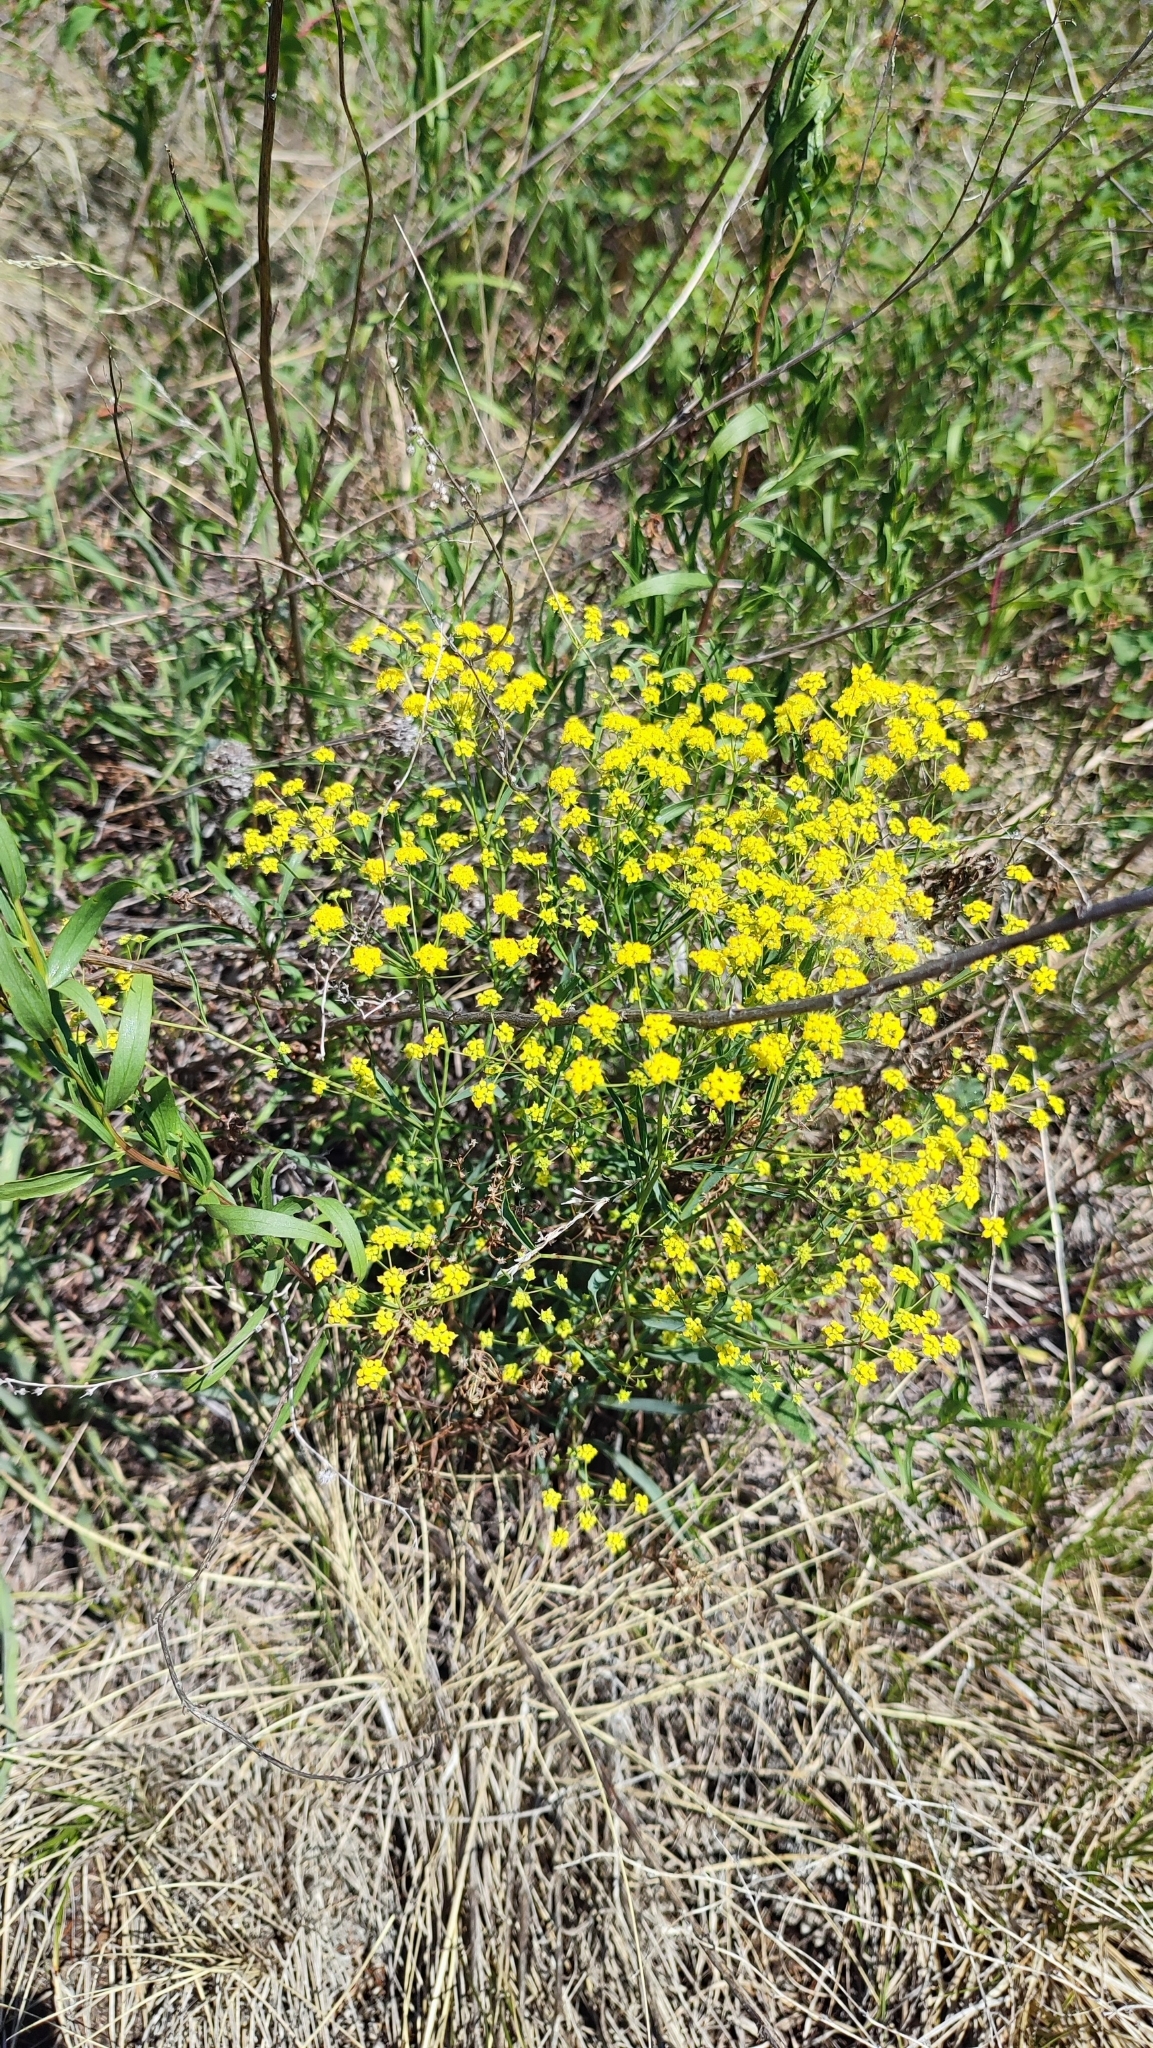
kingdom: Plantae
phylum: Tracheophyta
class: Magnoliopsida
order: Apiales
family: Apiaceae
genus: Bupleurum
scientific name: Bupleurum scorzonerifolium
